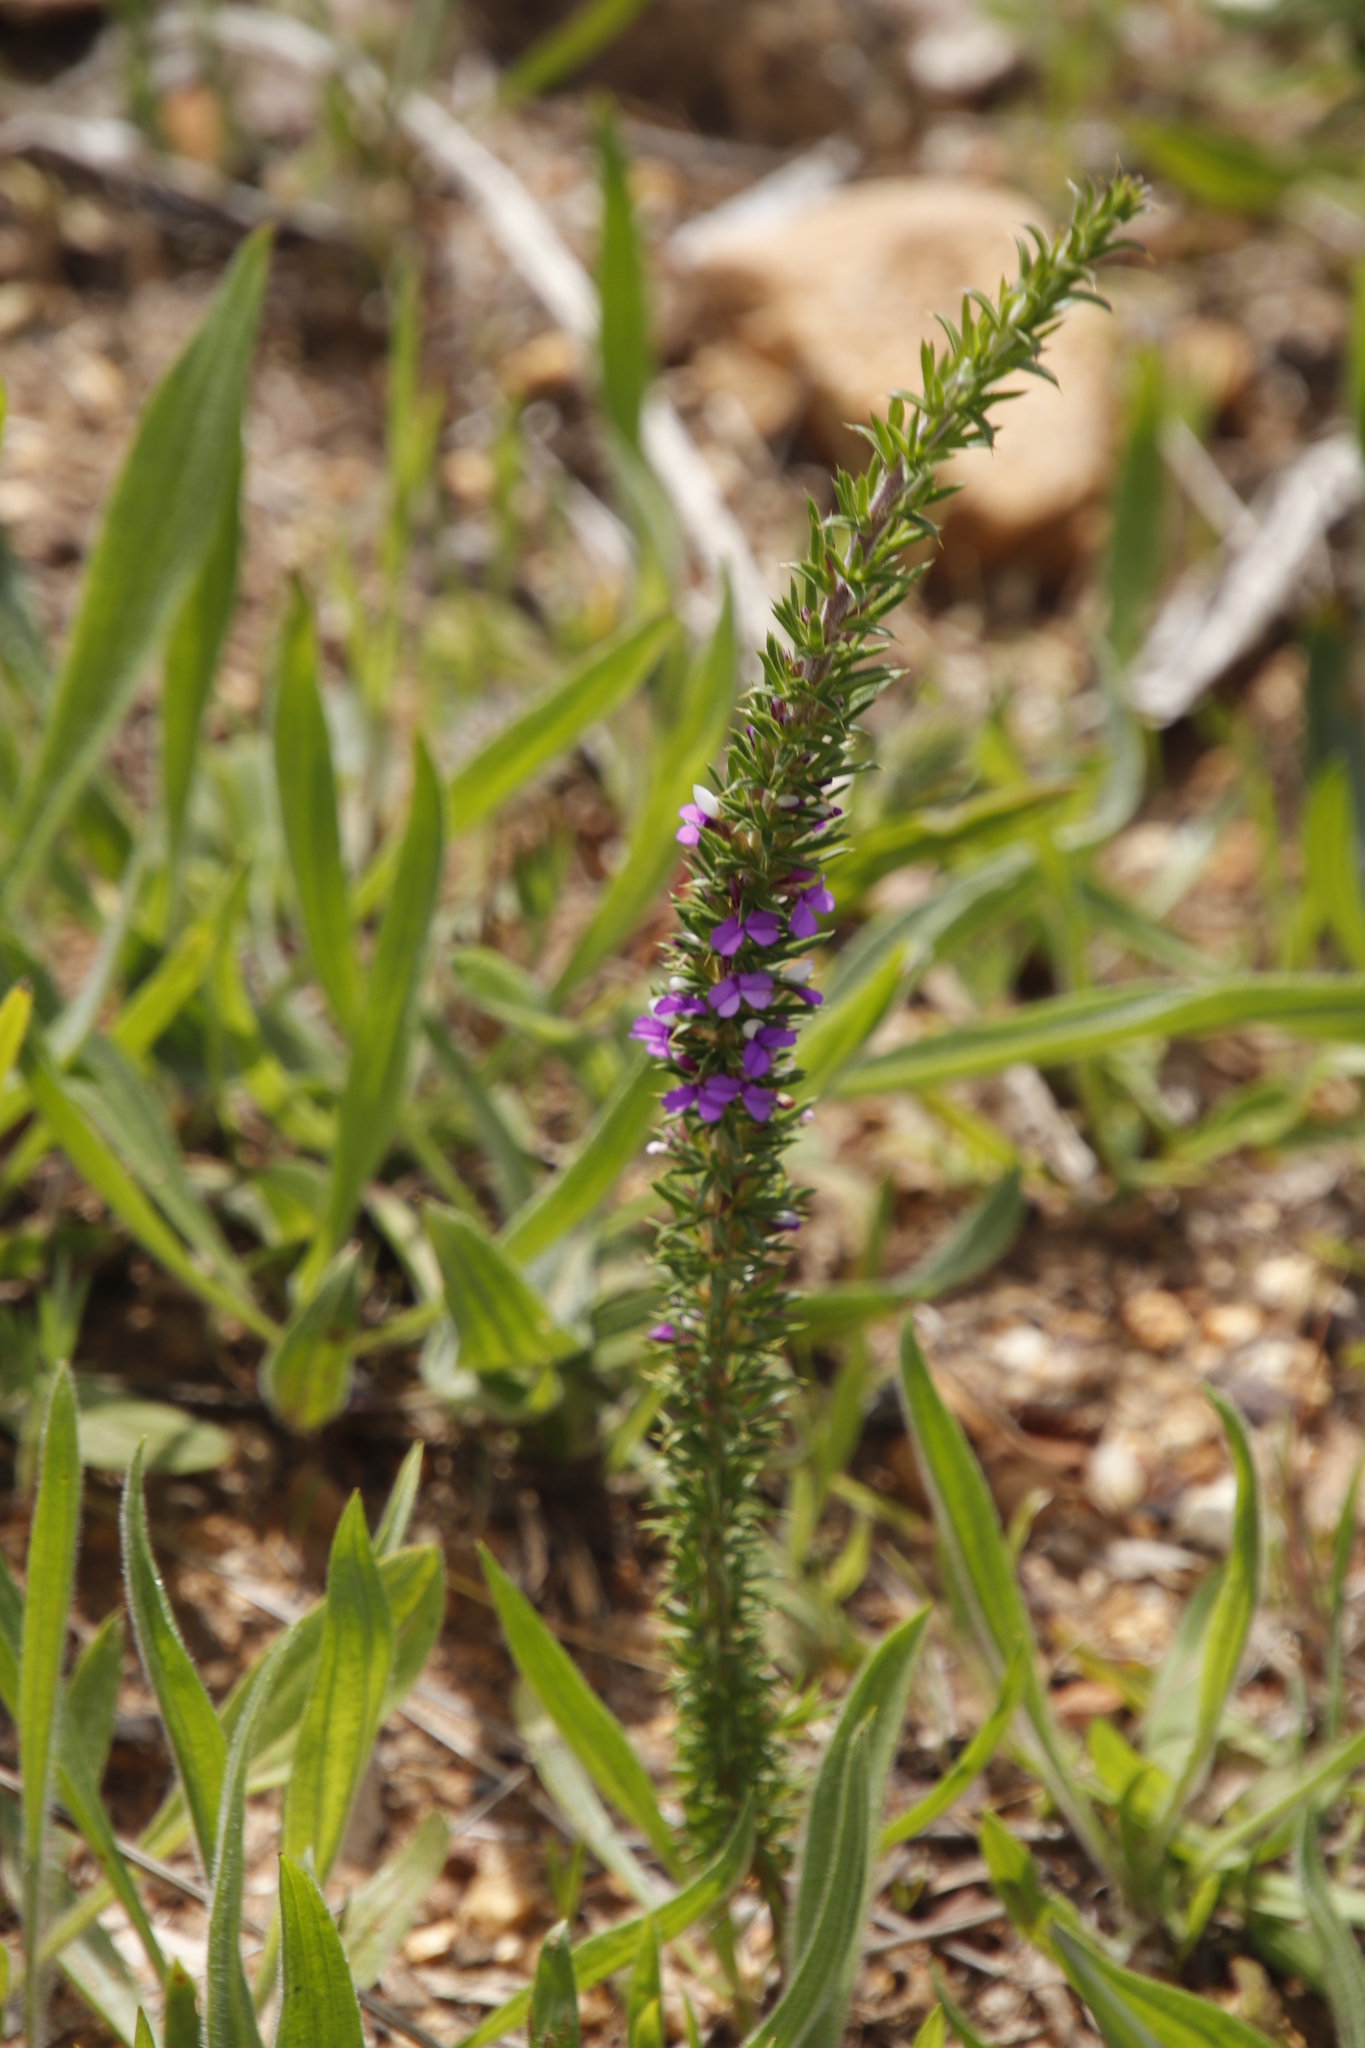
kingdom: Plantae
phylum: Tracheophyta
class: Magnoliopsida
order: Fabales
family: Polygalaceae
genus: Muraltia
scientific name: Muraltia heisteria
